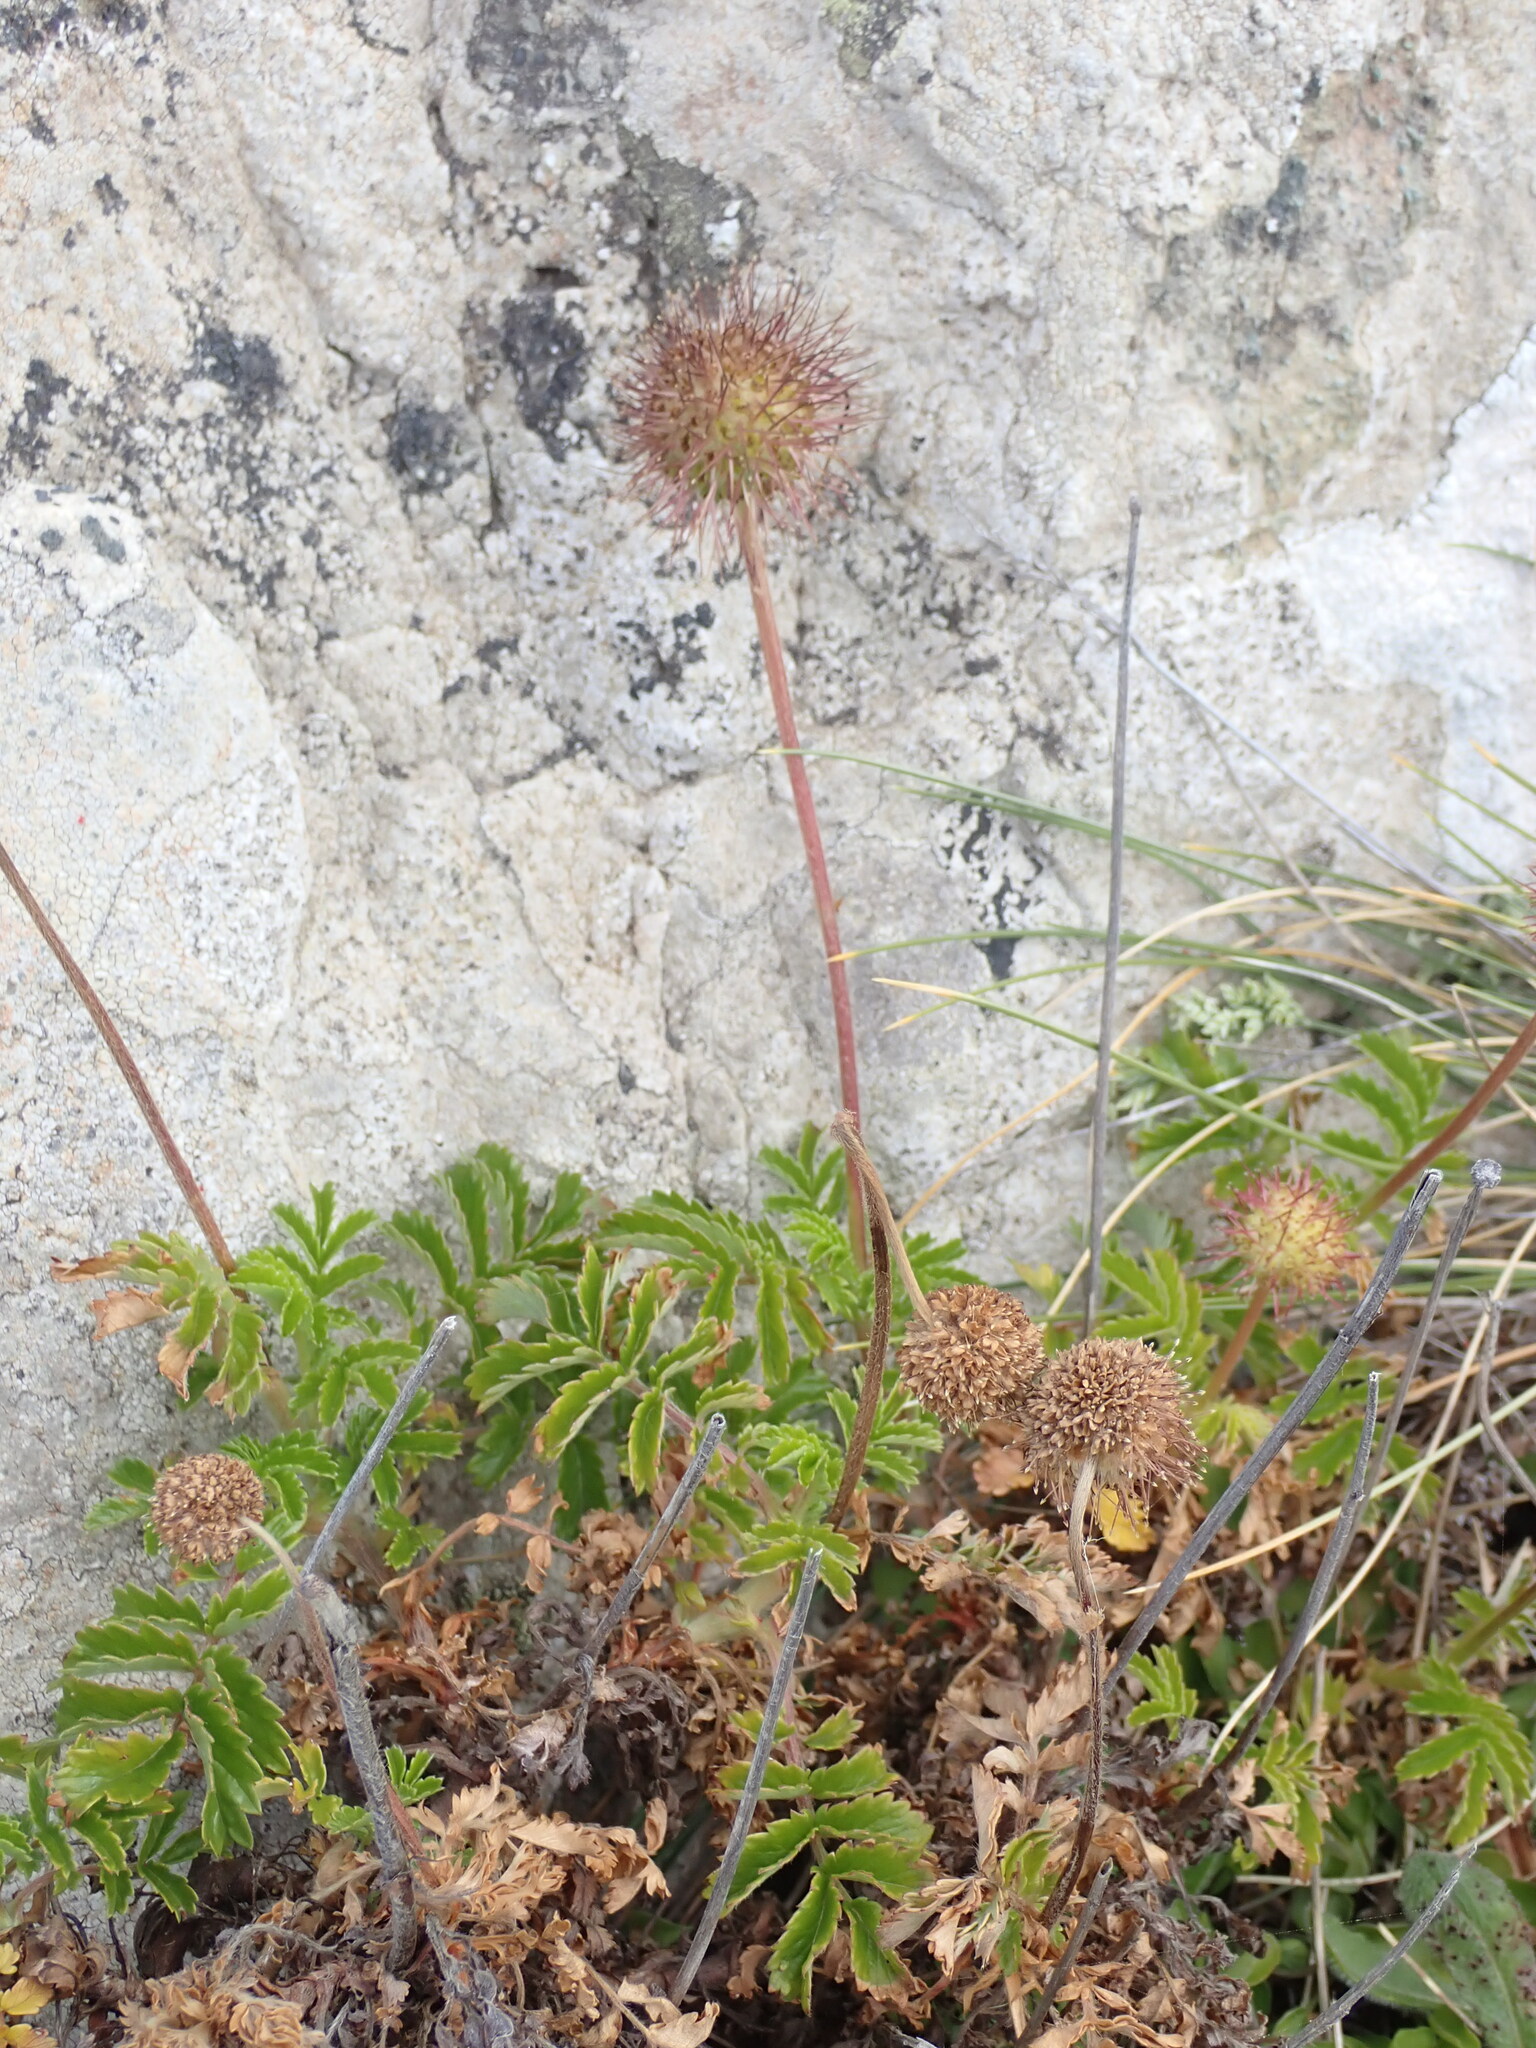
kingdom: Plantae
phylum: Tracheophyta
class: Magnoliopsida
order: Rosales
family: Rosaceae
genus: Acaena
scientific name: Acaena novae-zelandiae
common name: Pirri-pirri-bur
